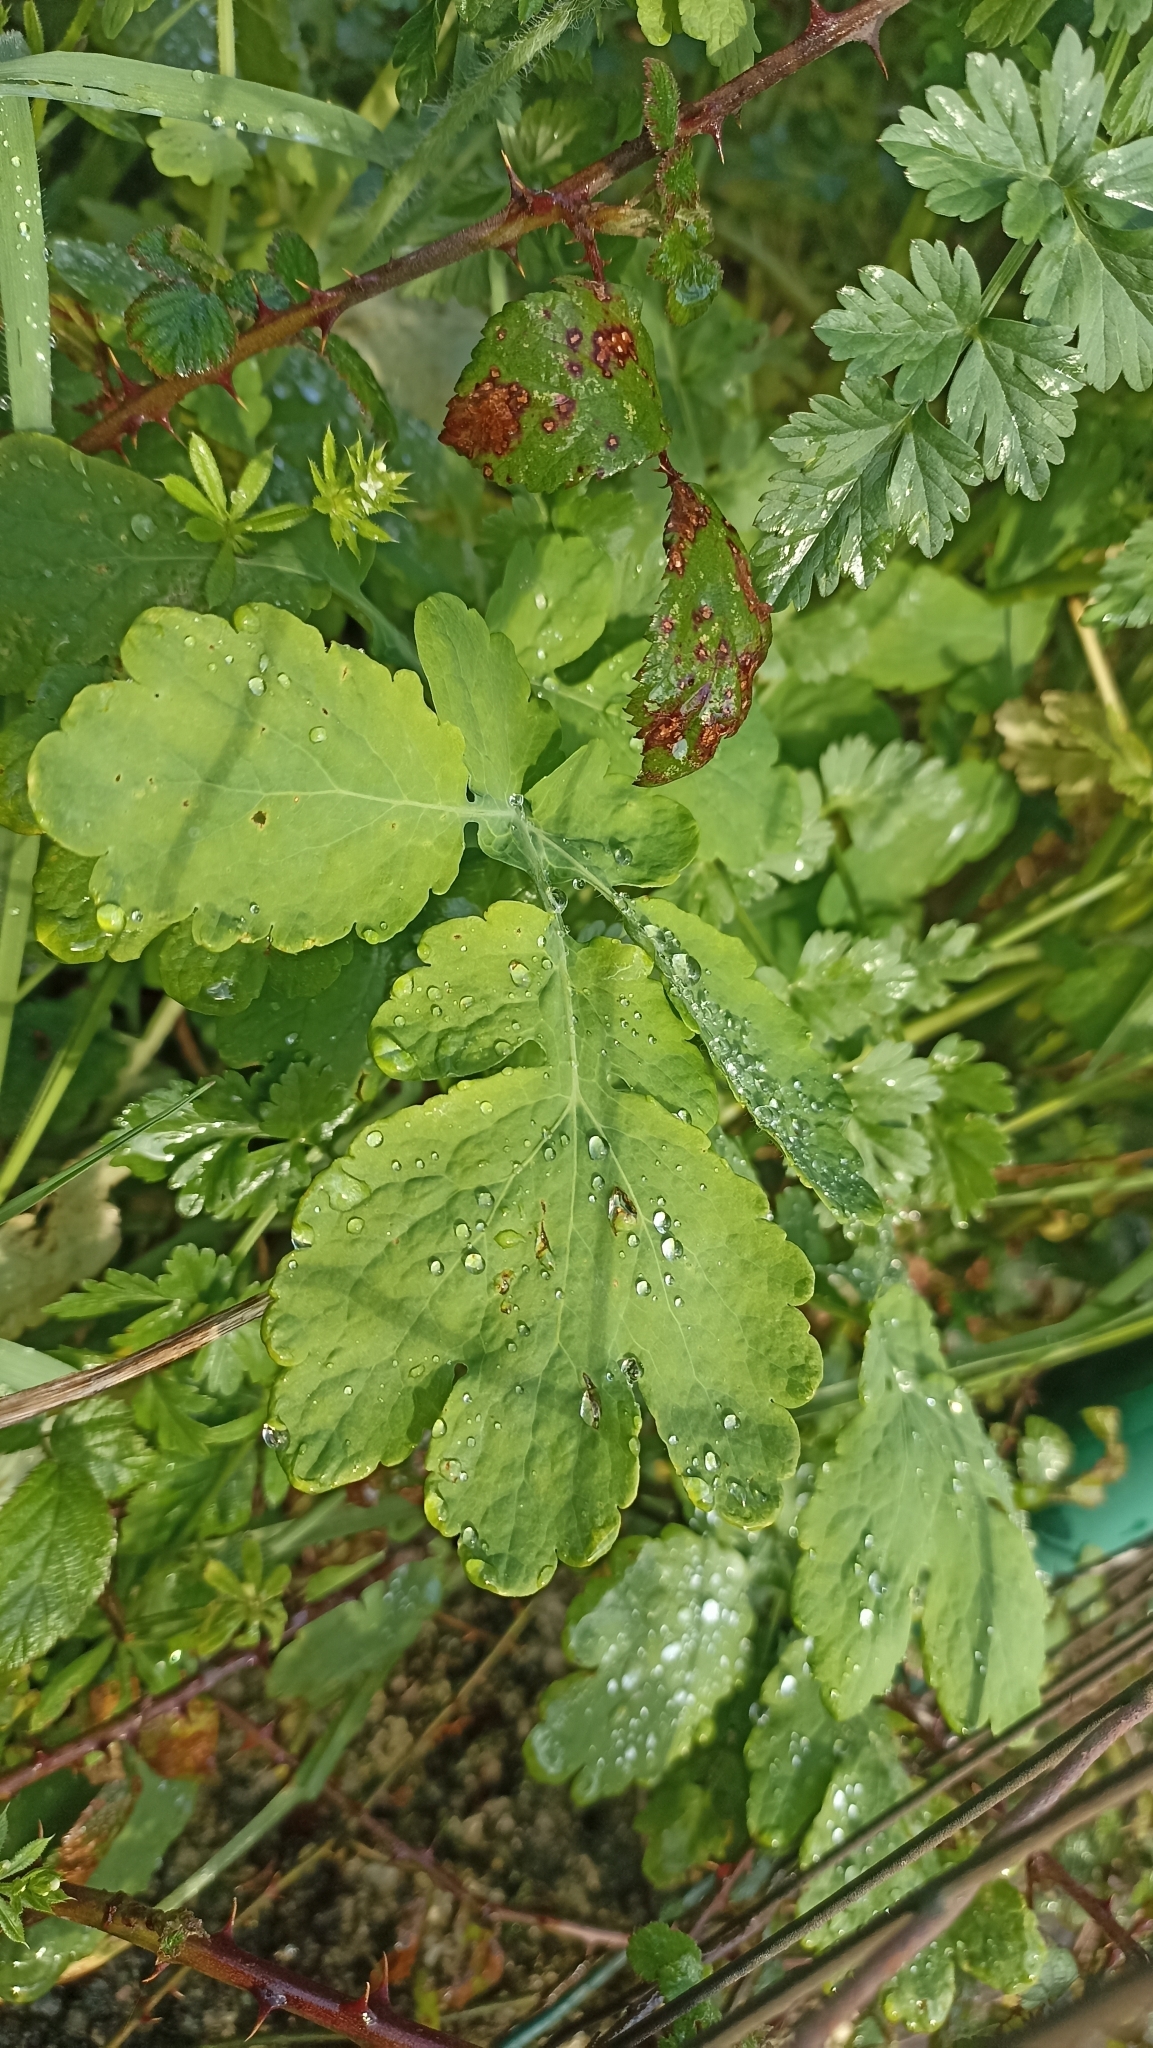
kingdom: Plantae
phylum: Tracheophyta
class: Magnoliopsida
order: Ranunculales
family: Papaveraceae
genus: Chelidonium
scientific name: Chelidonium majus
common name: Greater celandine
